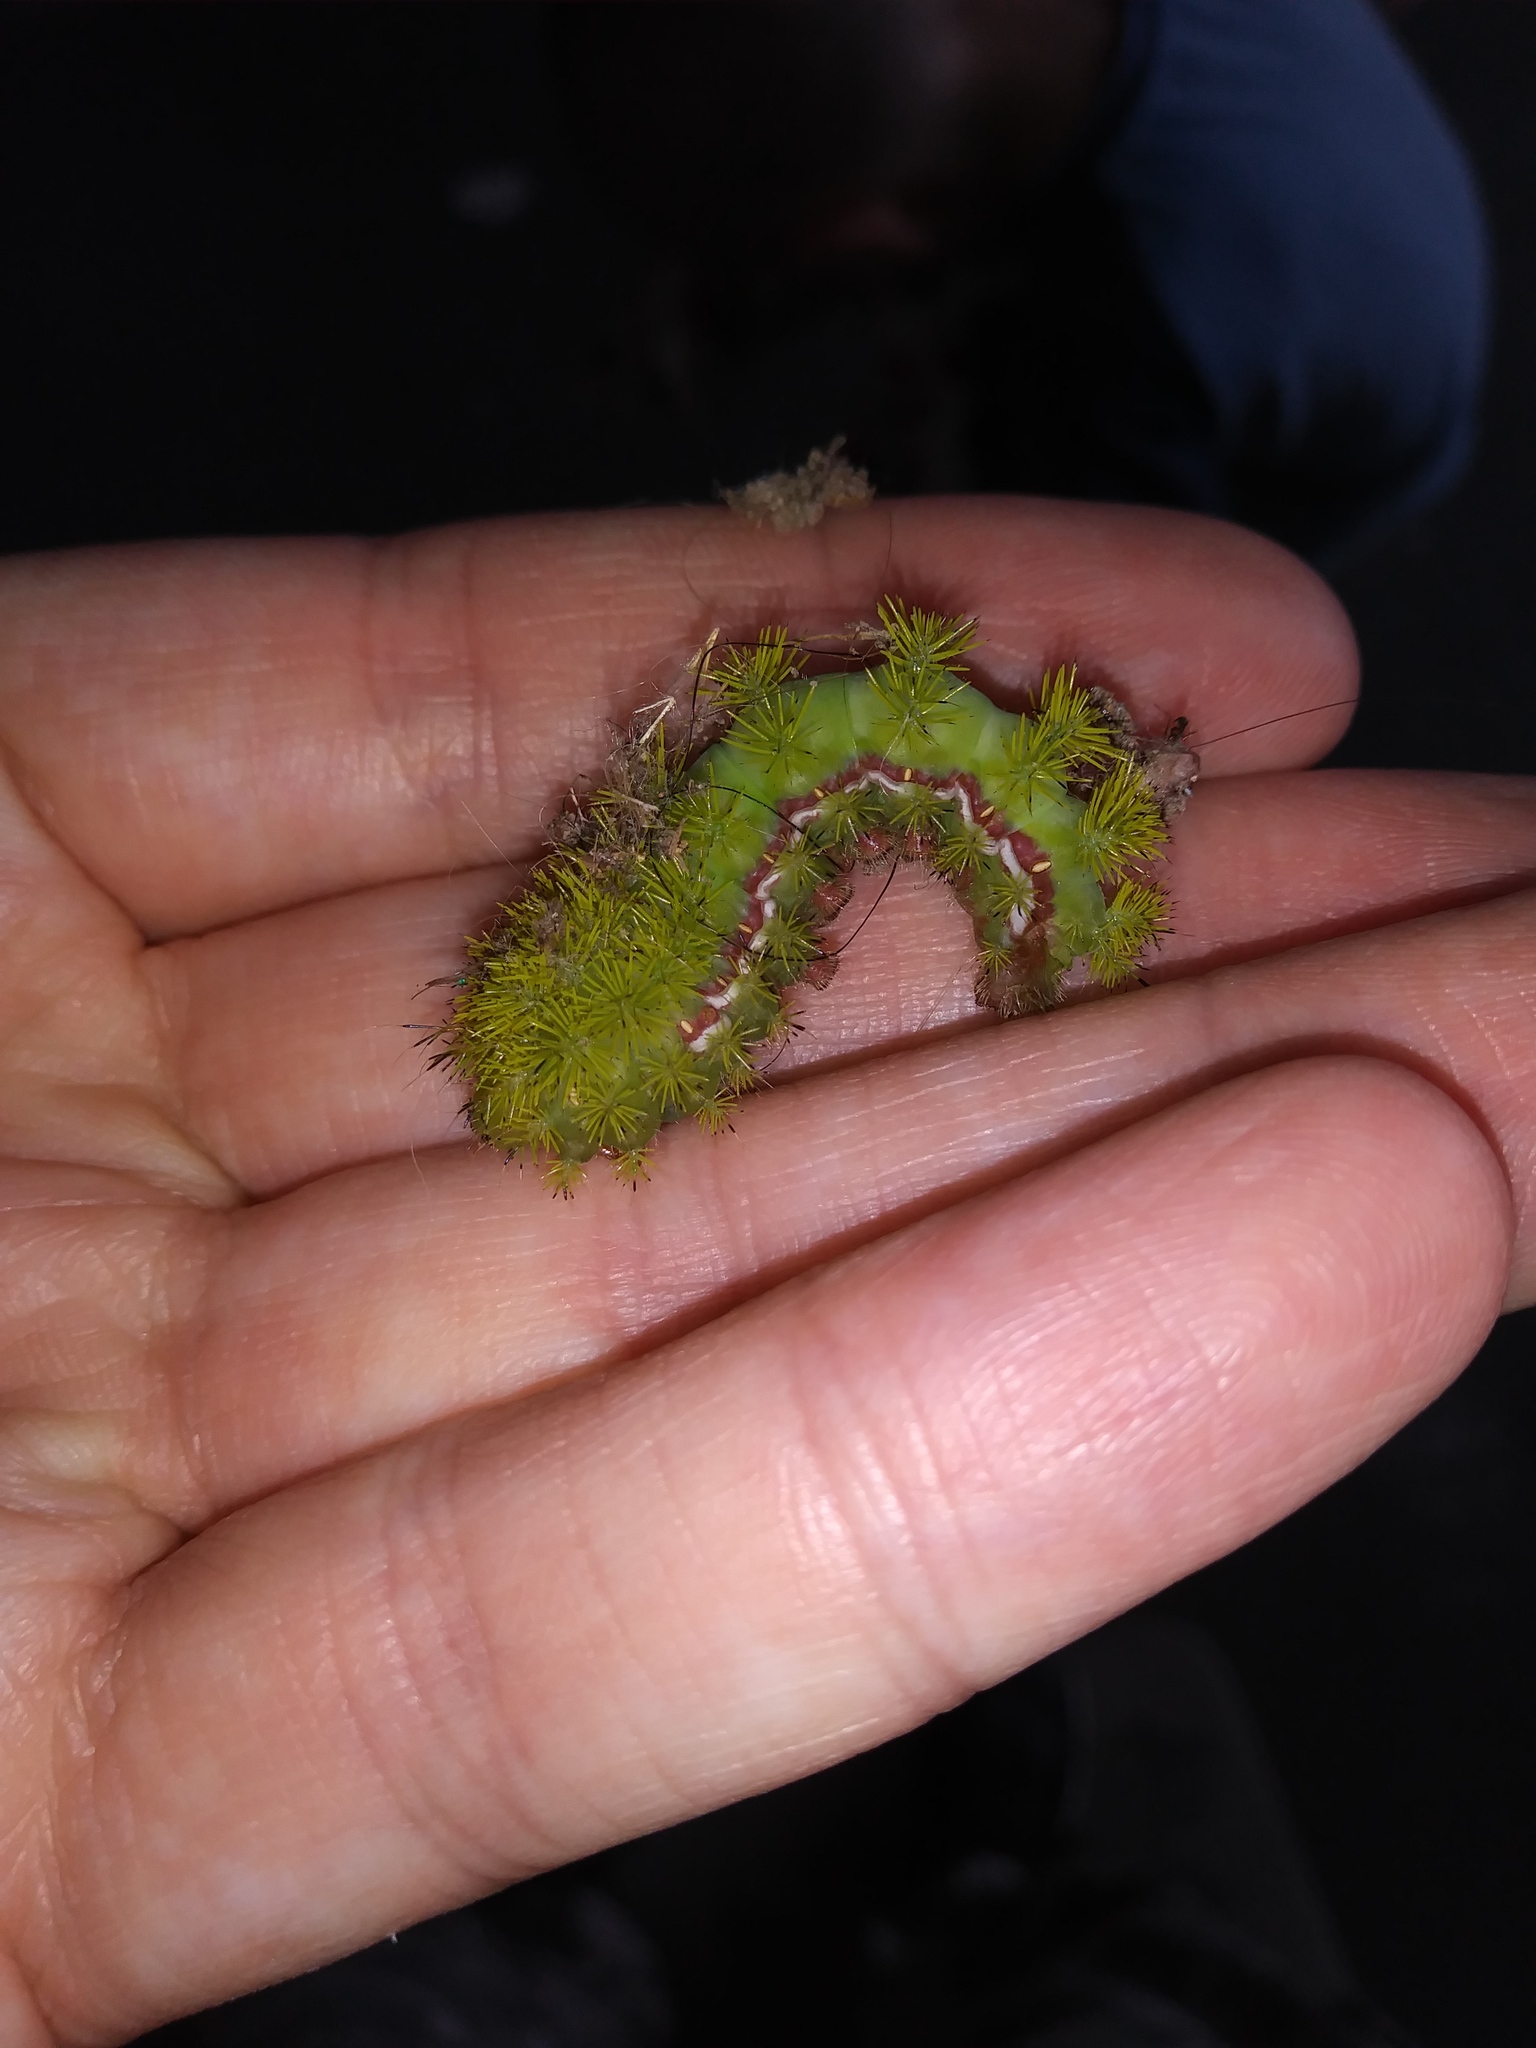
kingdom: Animalia
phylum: Arthropoda
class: Insecta
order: Lepidoptera
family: Saturniidae
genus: Automeris
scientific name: Automeris io
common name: Io moth
